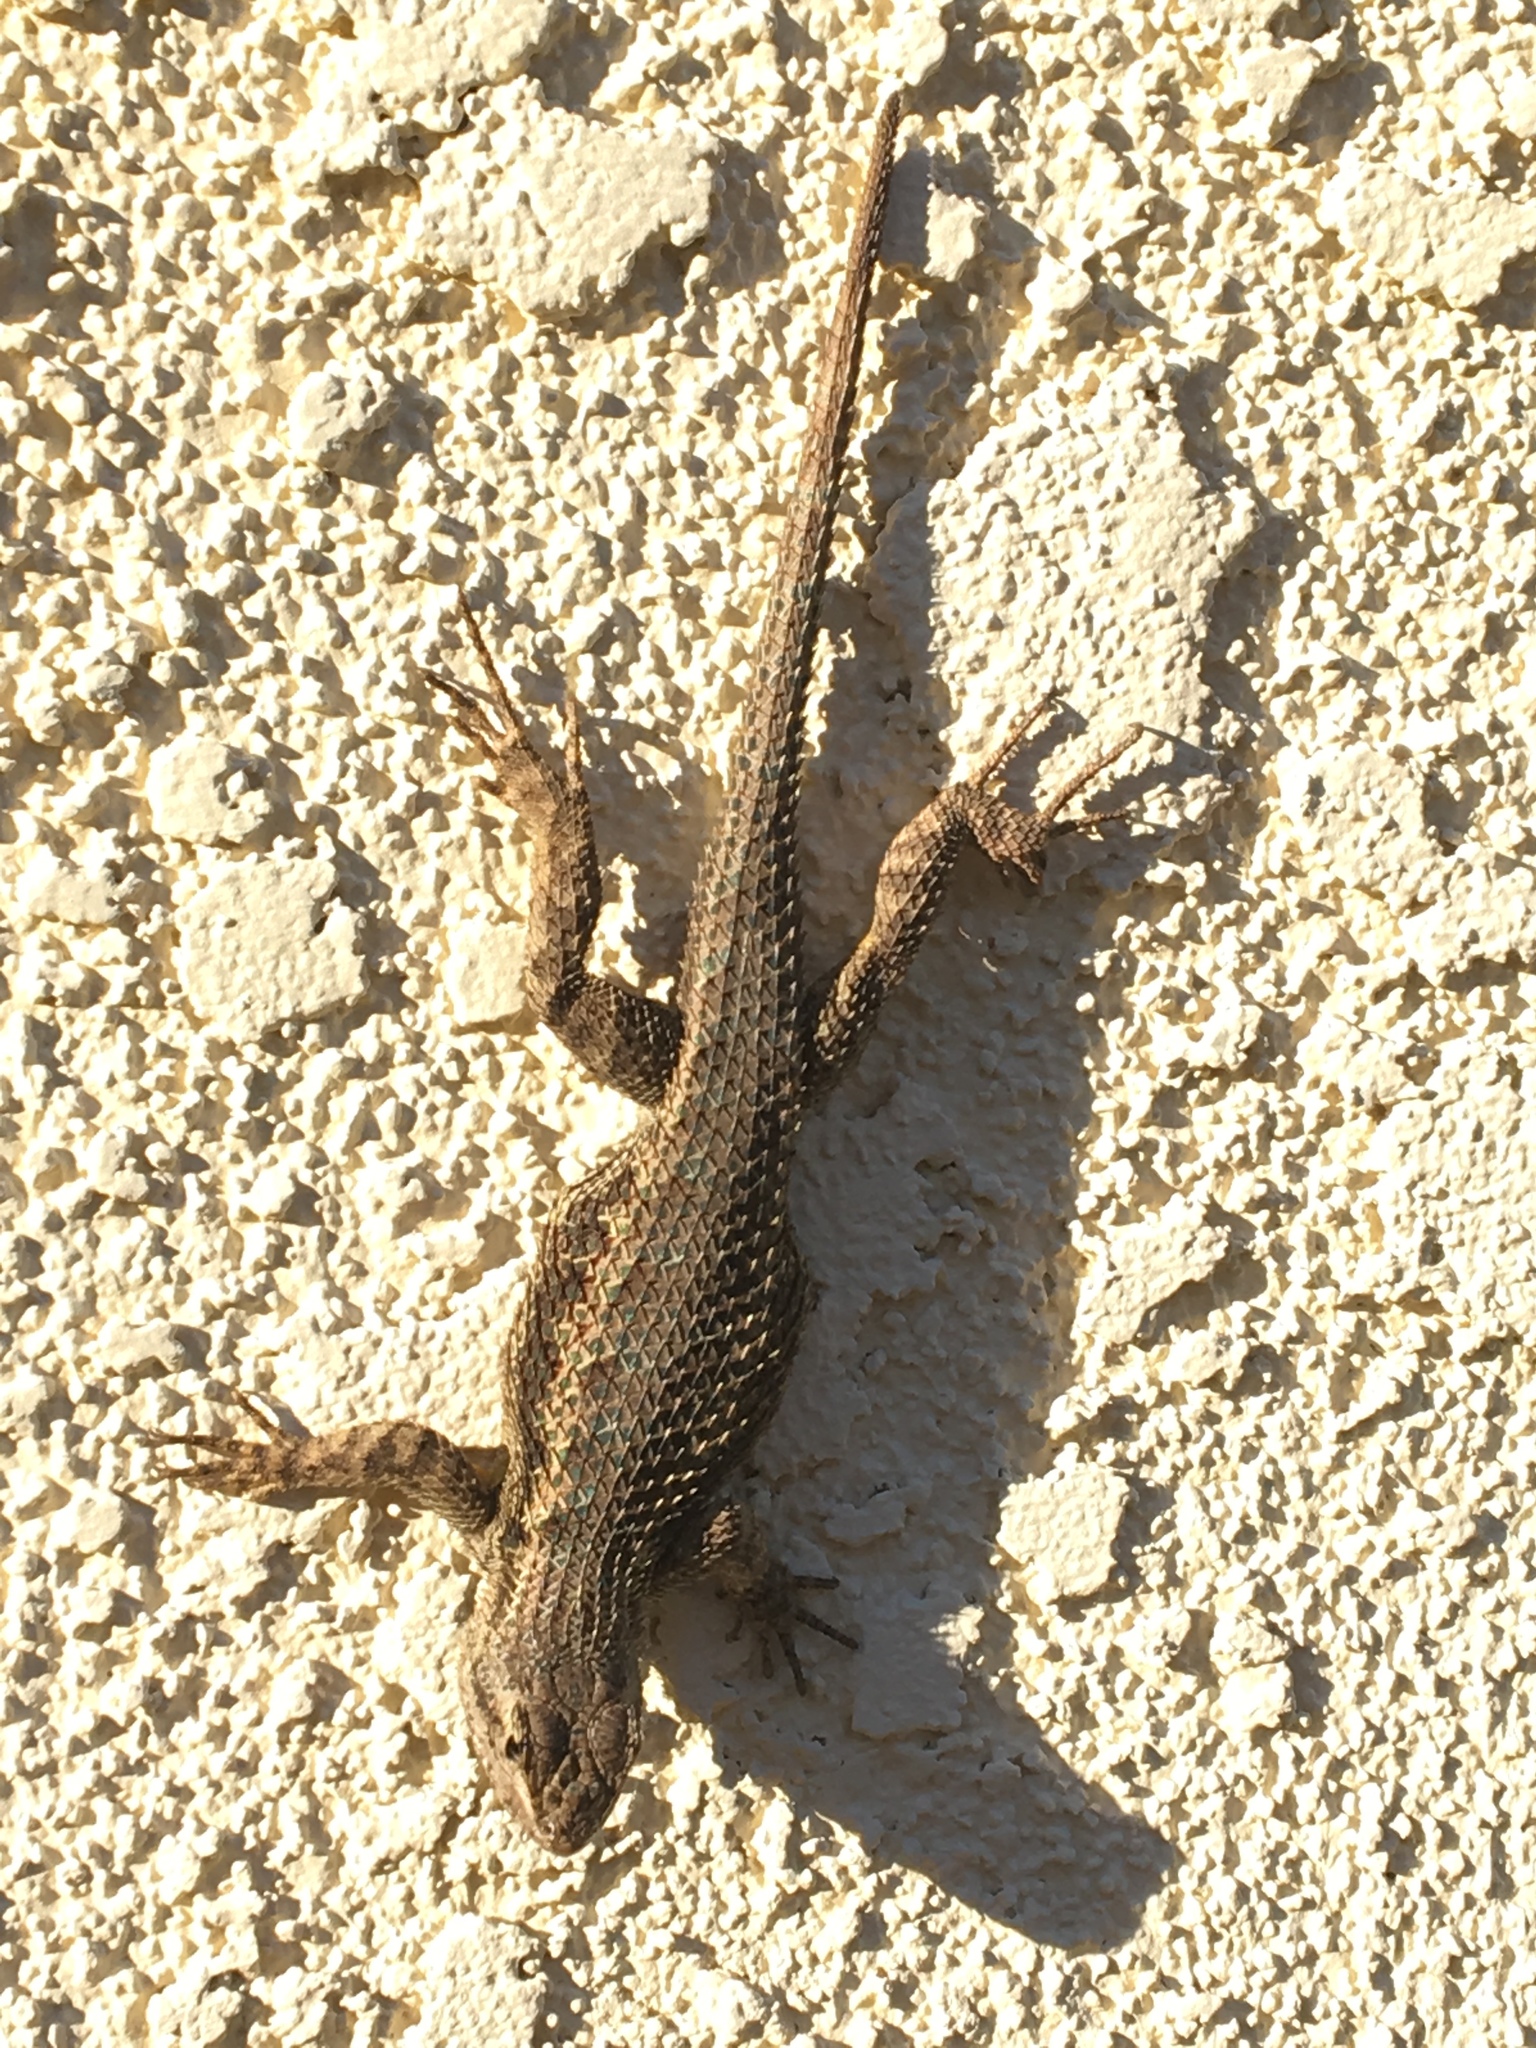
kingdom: Animalia
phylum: Chordata
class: Squamata
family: Phrynosomatidae
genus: Sceloporus
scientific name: Sceloporus occidentalis
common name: Western fence lizard
